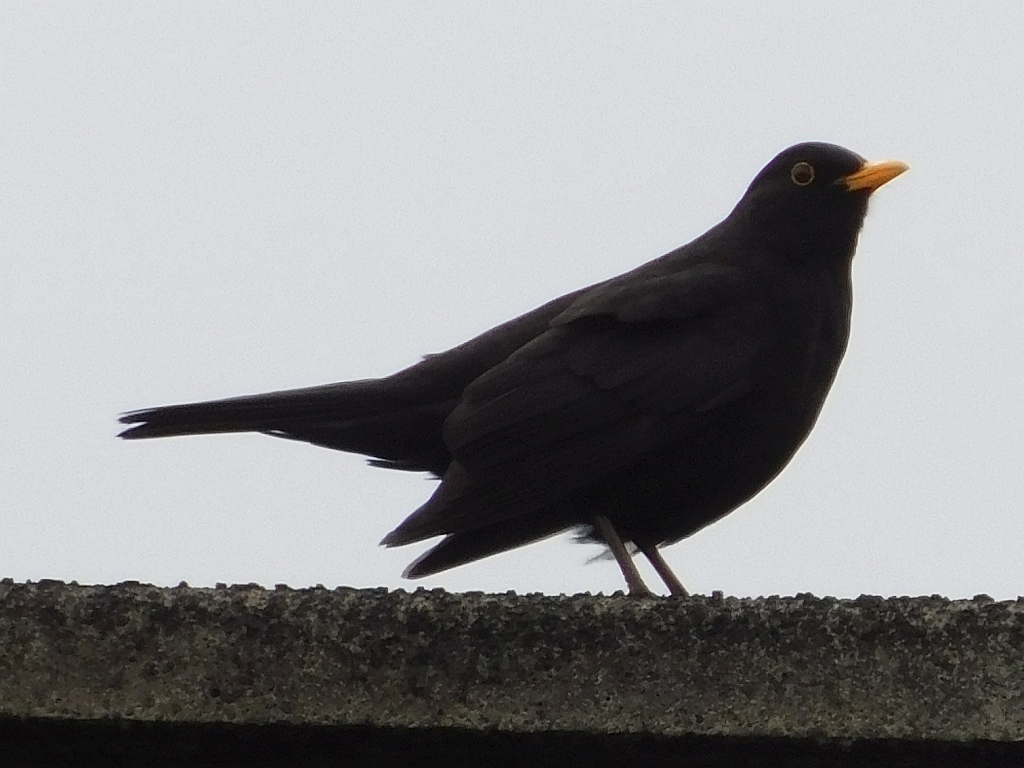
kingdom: Animalia
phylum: Chordata
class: Aves
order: Passeriformes
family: Turdidae
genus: Turdus
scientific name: Turdus merula
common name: Common blackbird
